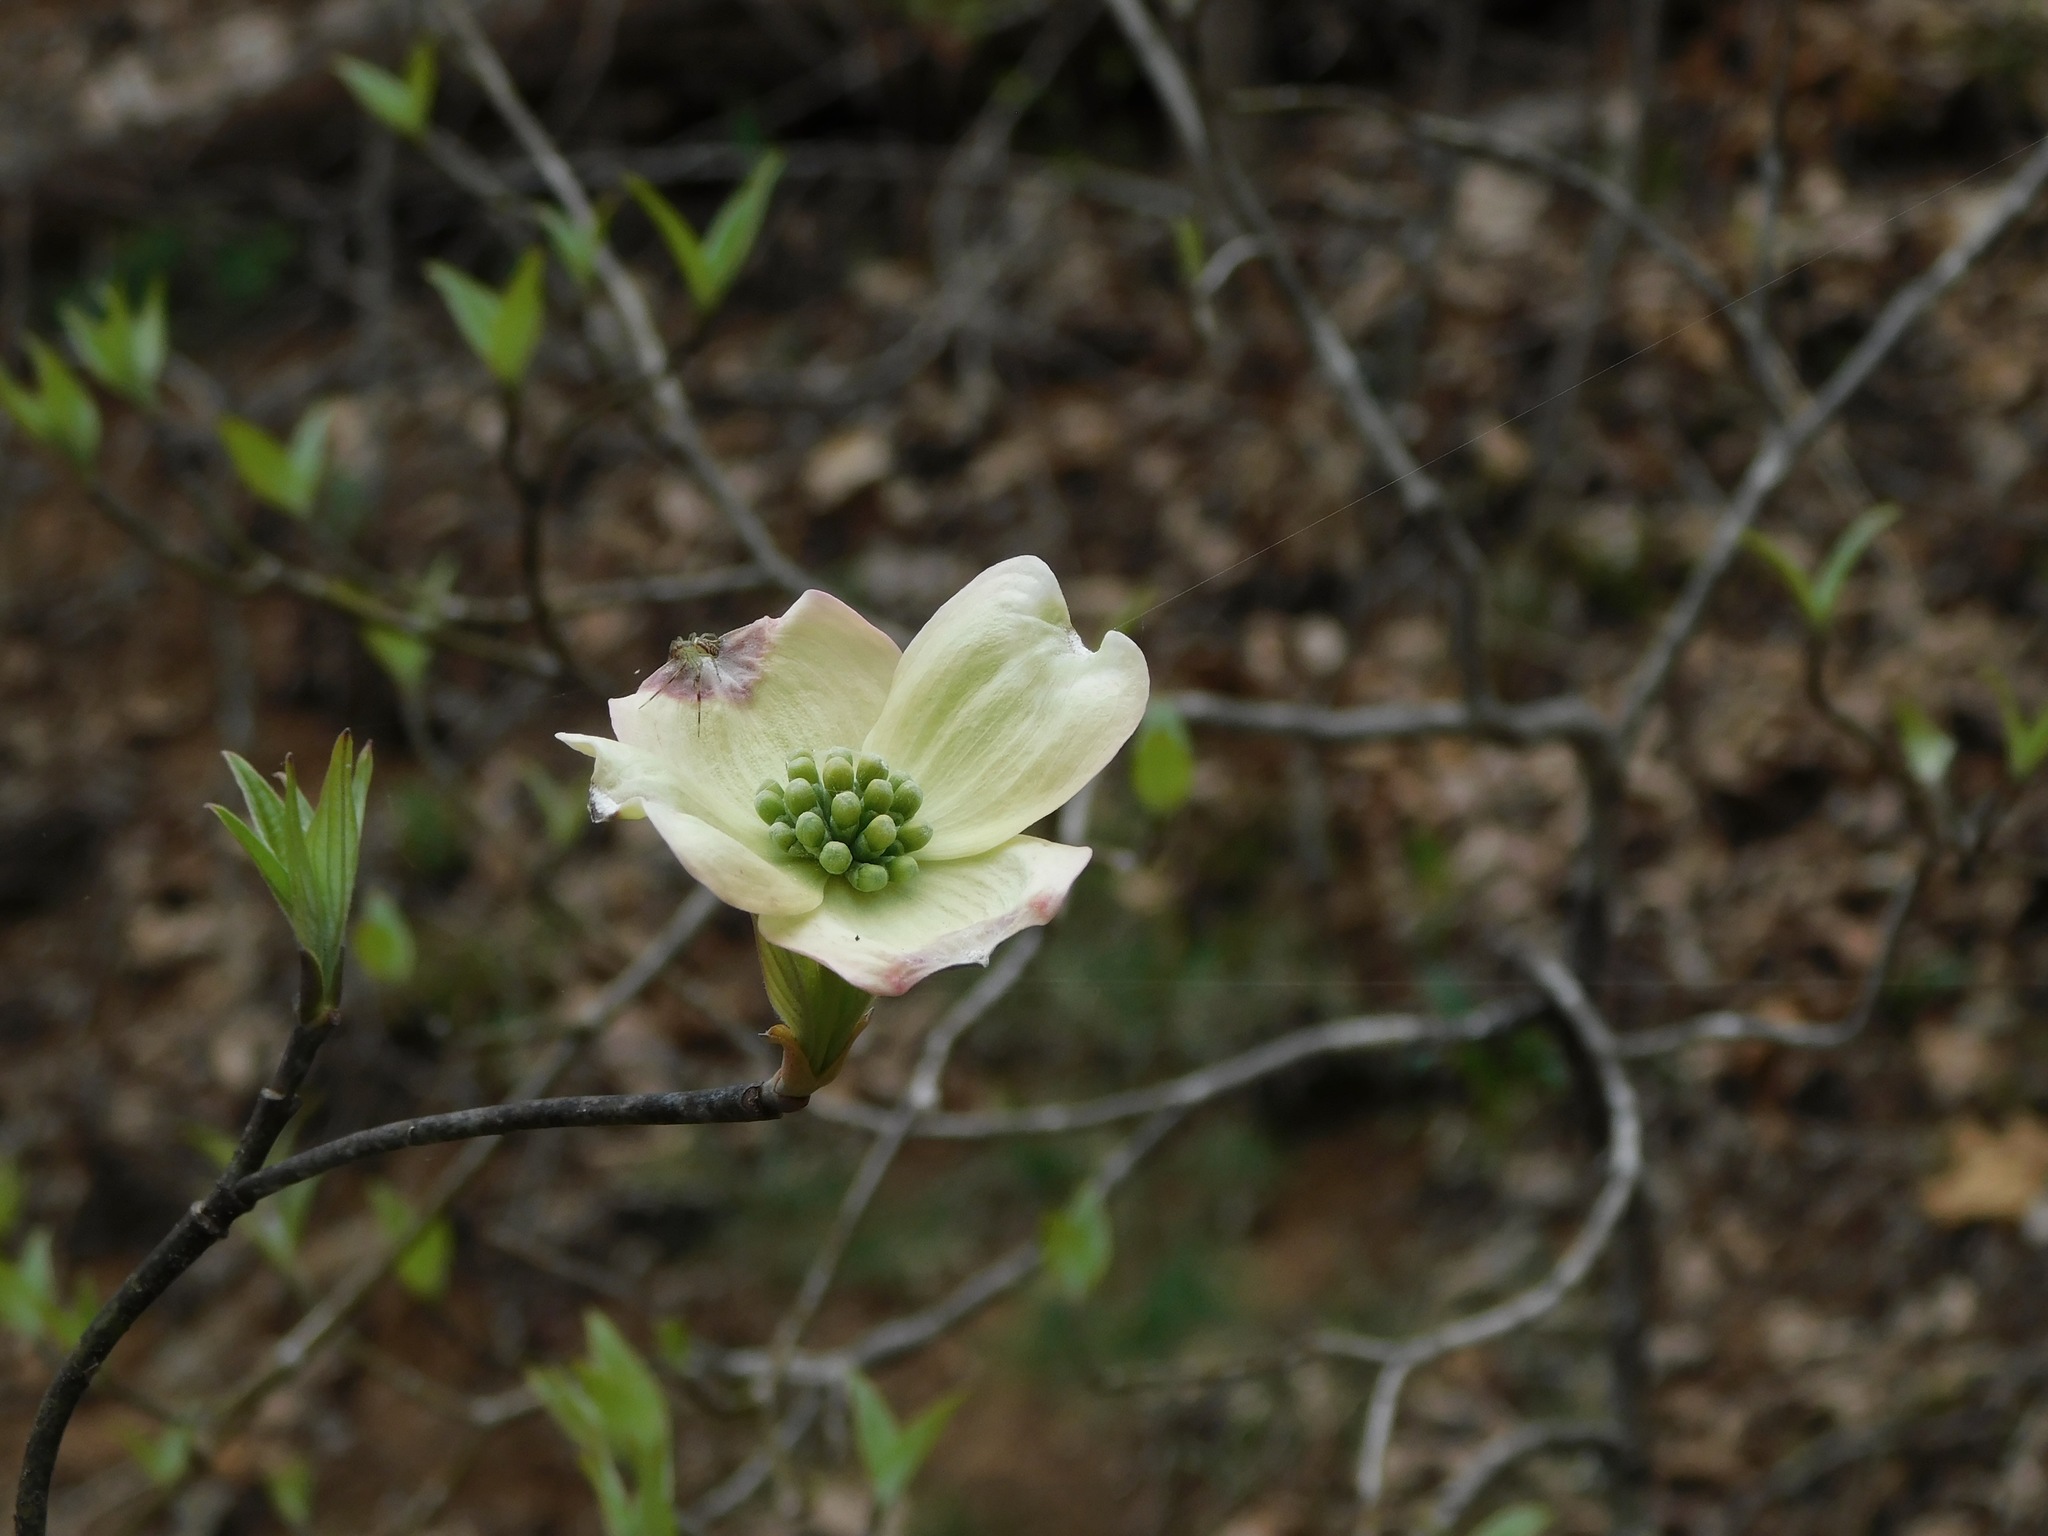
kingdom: Plantae
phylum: Tracheophyta
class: Magnoliopsida
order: Cornales
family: Cornaceae
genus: Cornus
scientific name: Cornus florida
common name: Flowering dogwood
